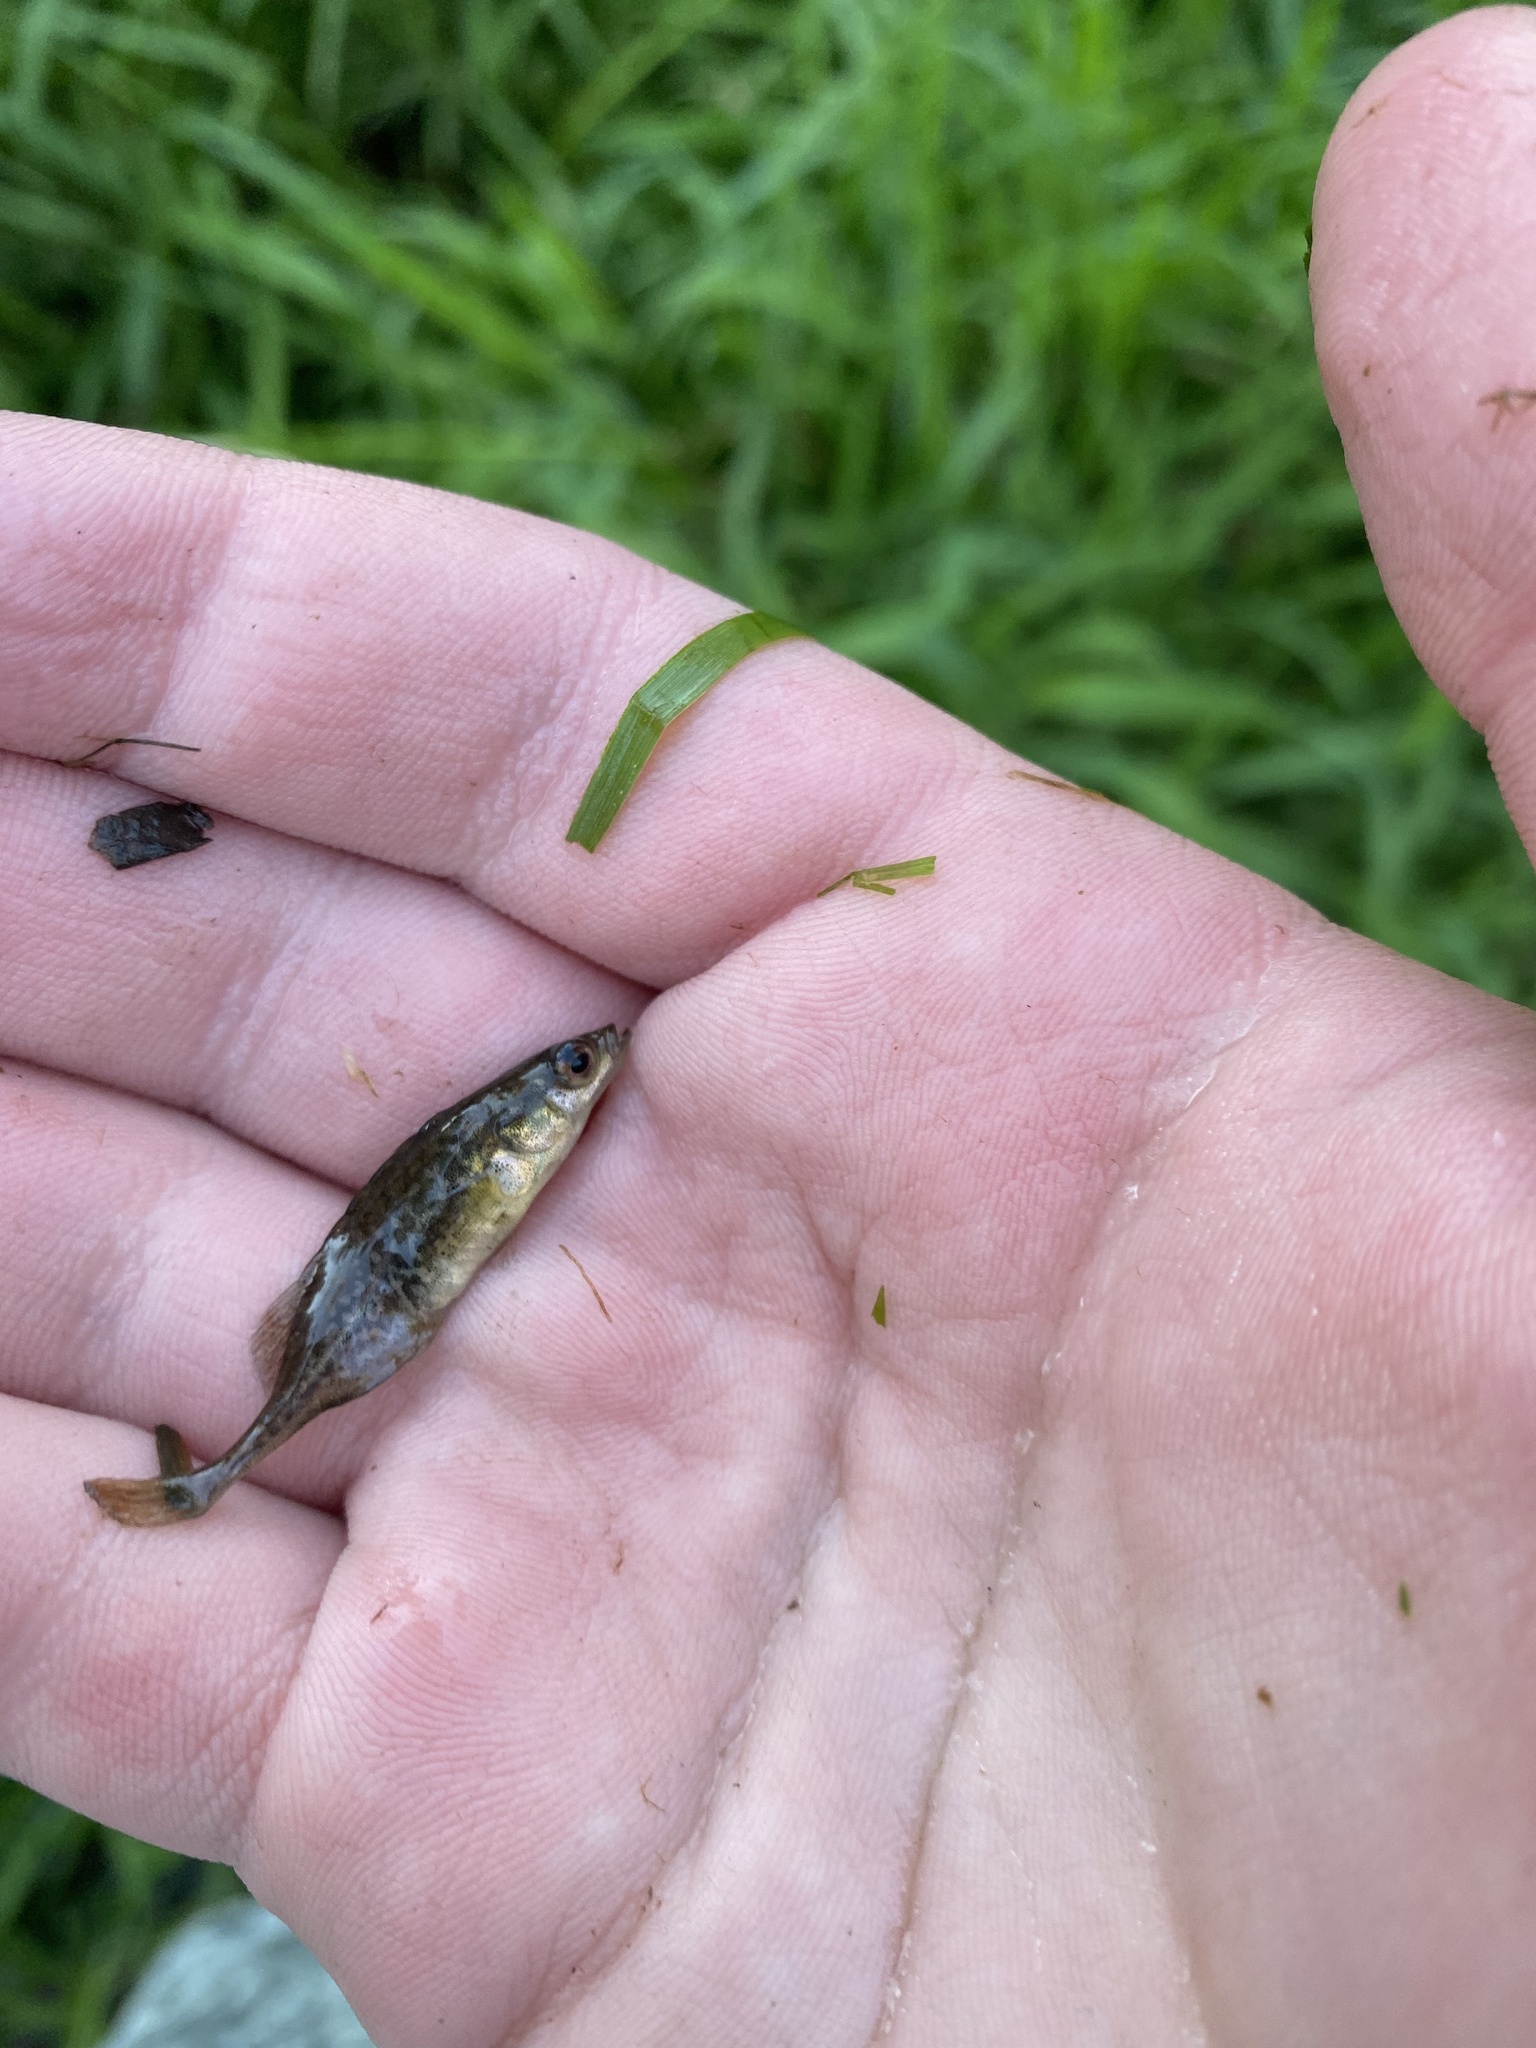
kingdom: Animalia
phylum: Chordata
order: Gasterosteiformes
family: Gasterosteidae
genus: Culaea
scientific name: Culaea inconstans
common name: Brook stickleback
